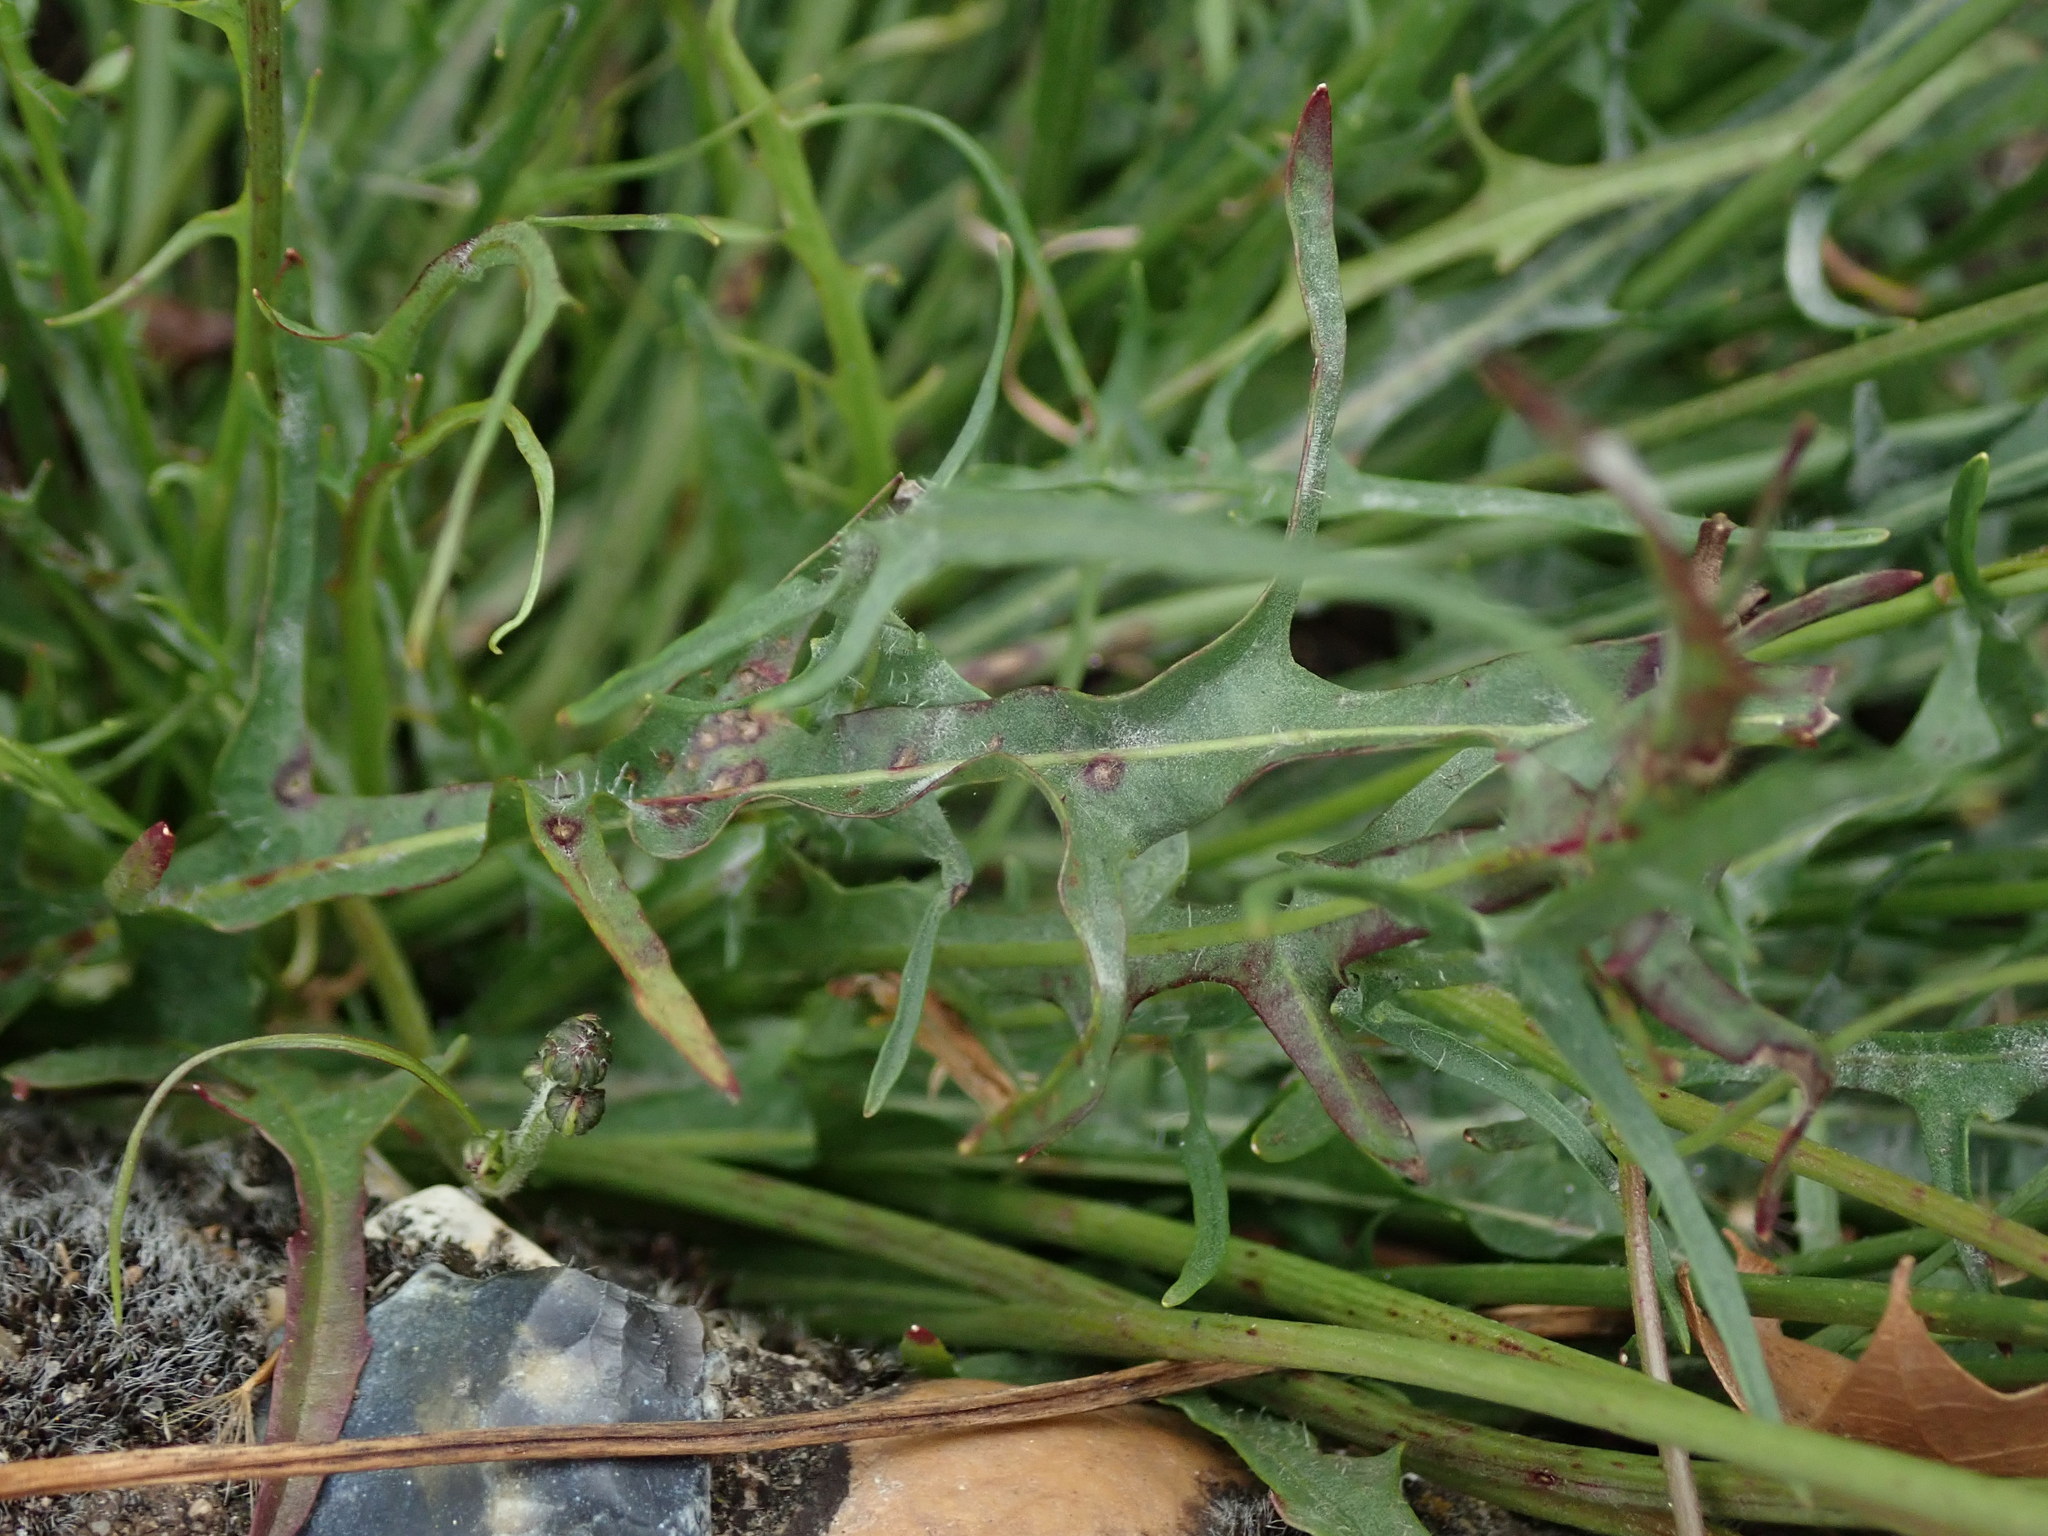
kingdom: Plantae
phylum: Tracheophyta
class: Magnoliopsida
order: Asterales
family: Asteraceae
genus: Scorzoneroides
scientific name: Scorzoneroides autumnalis
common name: Autumn hawkbit
